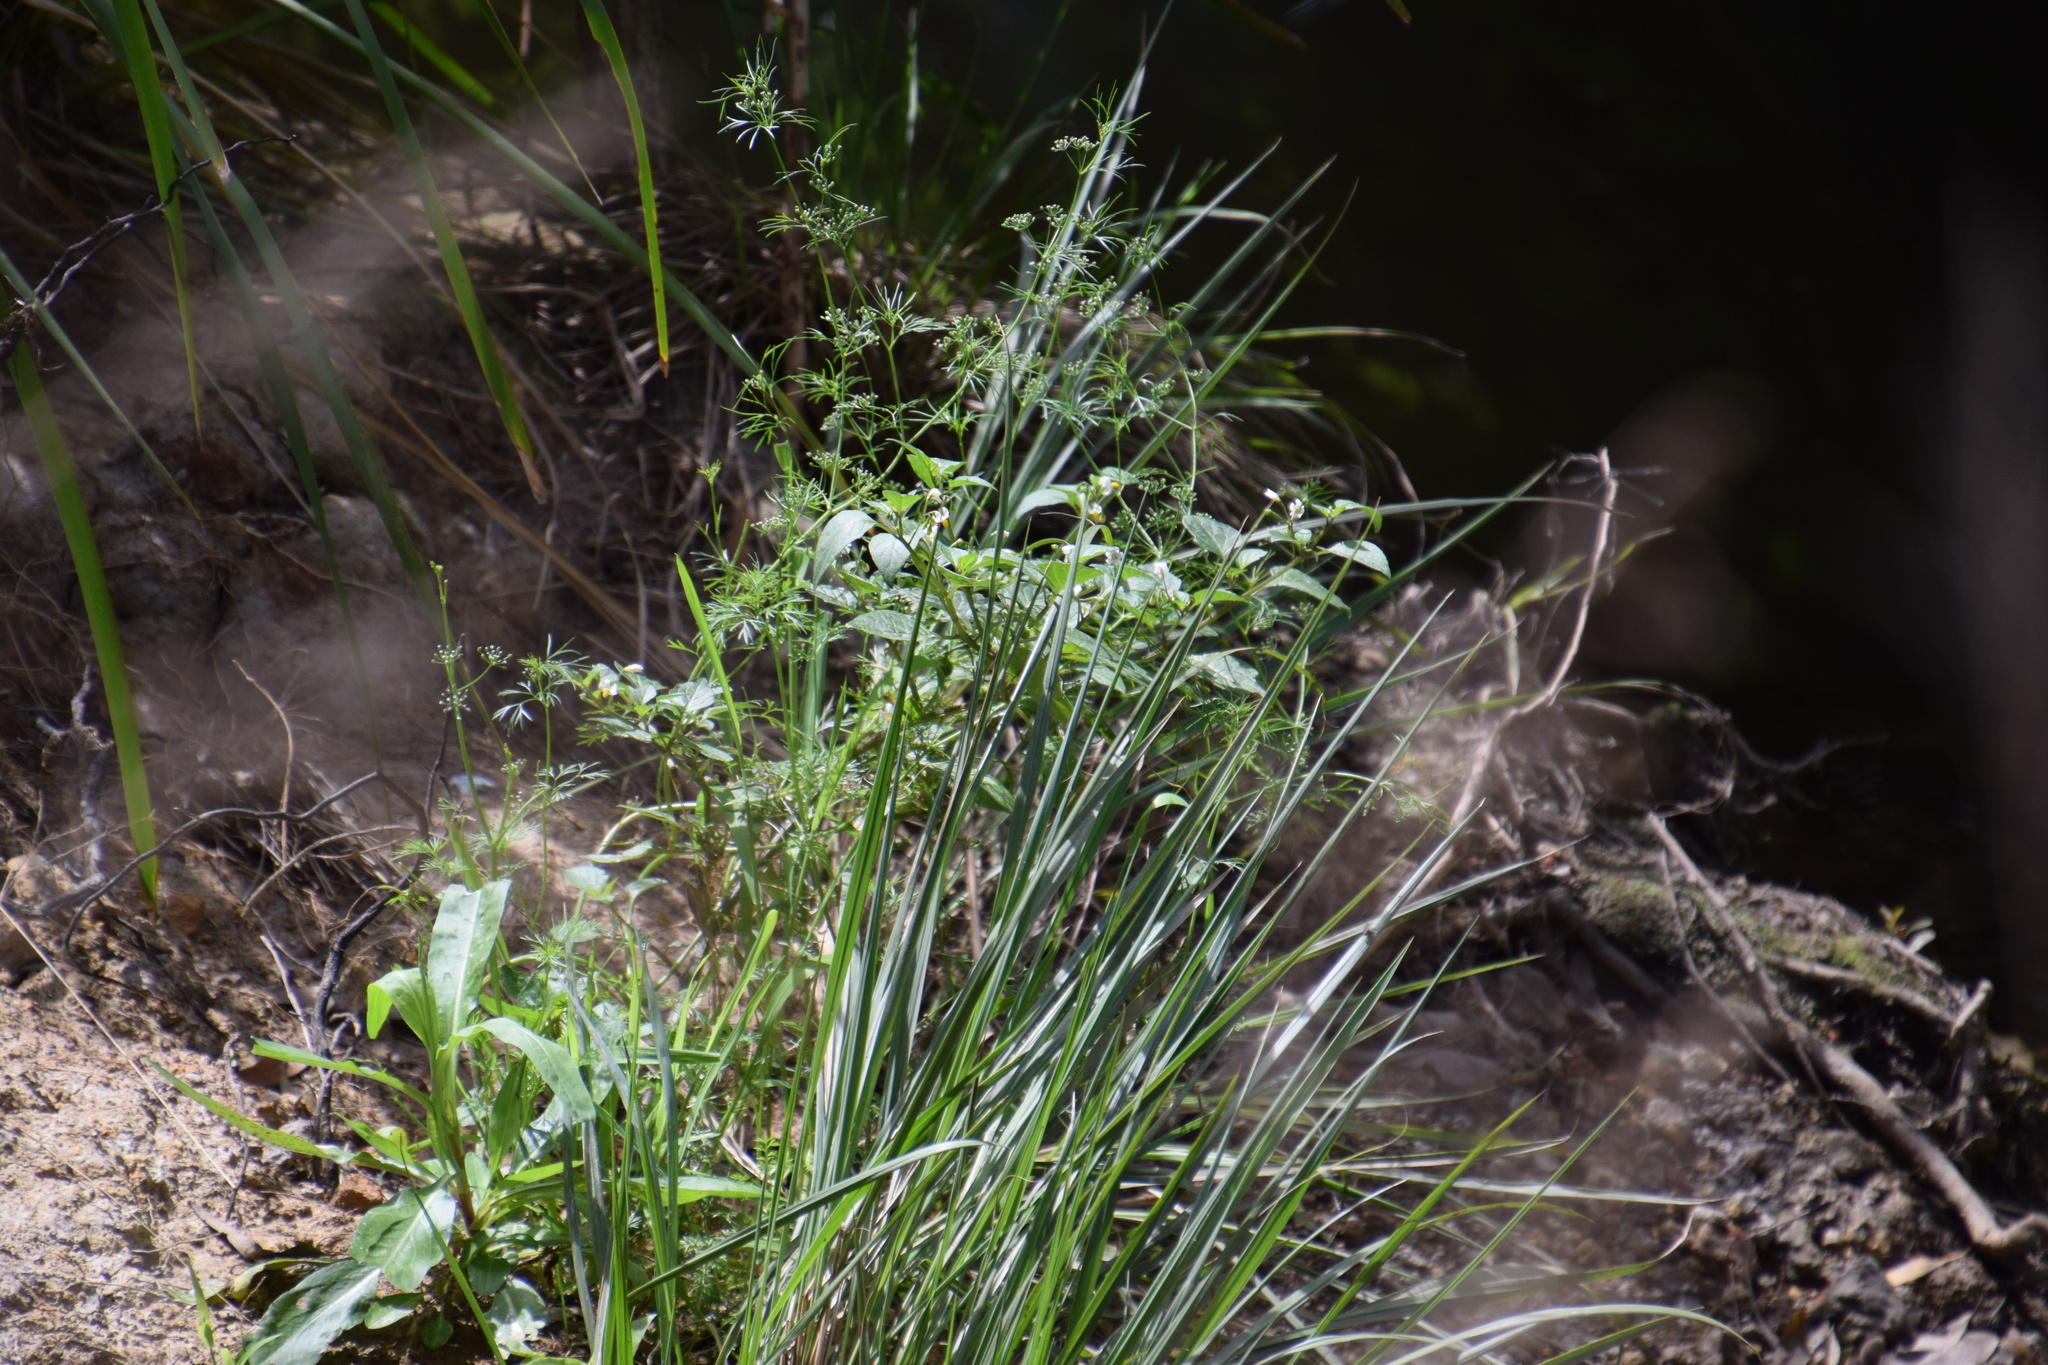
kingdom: Plantae
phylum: Tracheophyta
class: Magnoliopsida
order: Apiales
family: Apiaceae
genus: Cyclospermum
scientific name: Cyclospermum leptophyllum
